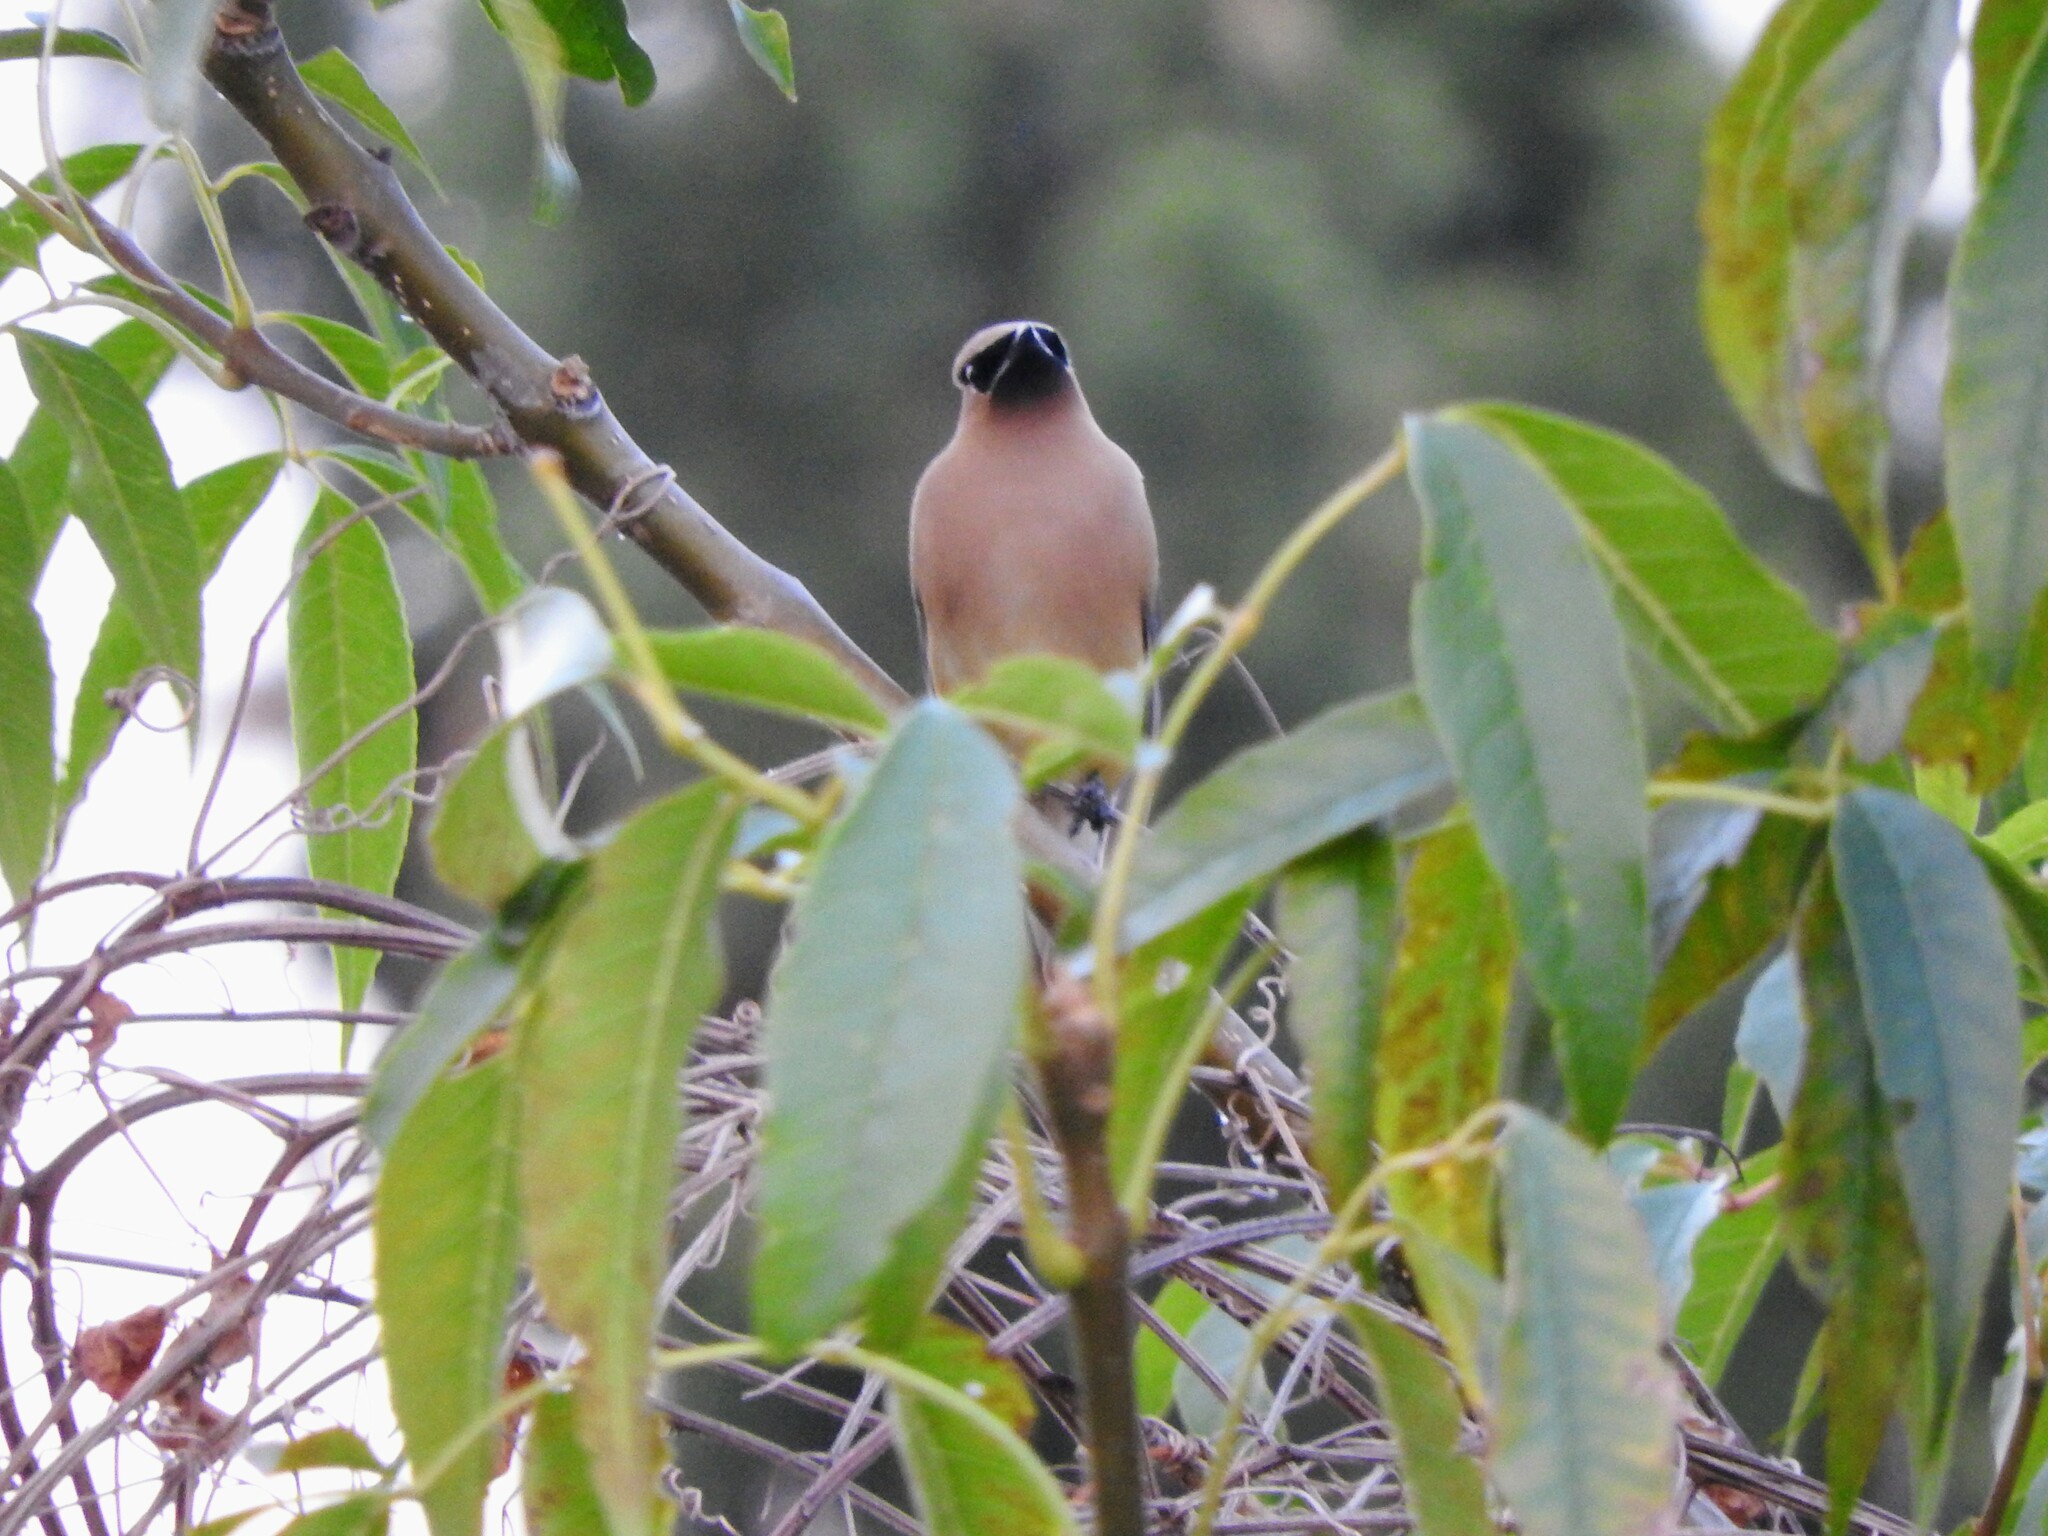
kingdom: Animalia
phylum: Chordata
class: Aves
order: Passeriformes
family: Bombycillidae
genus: Bombycilla
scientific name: Bombycilla cedrorum
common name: Cedar waxwing
